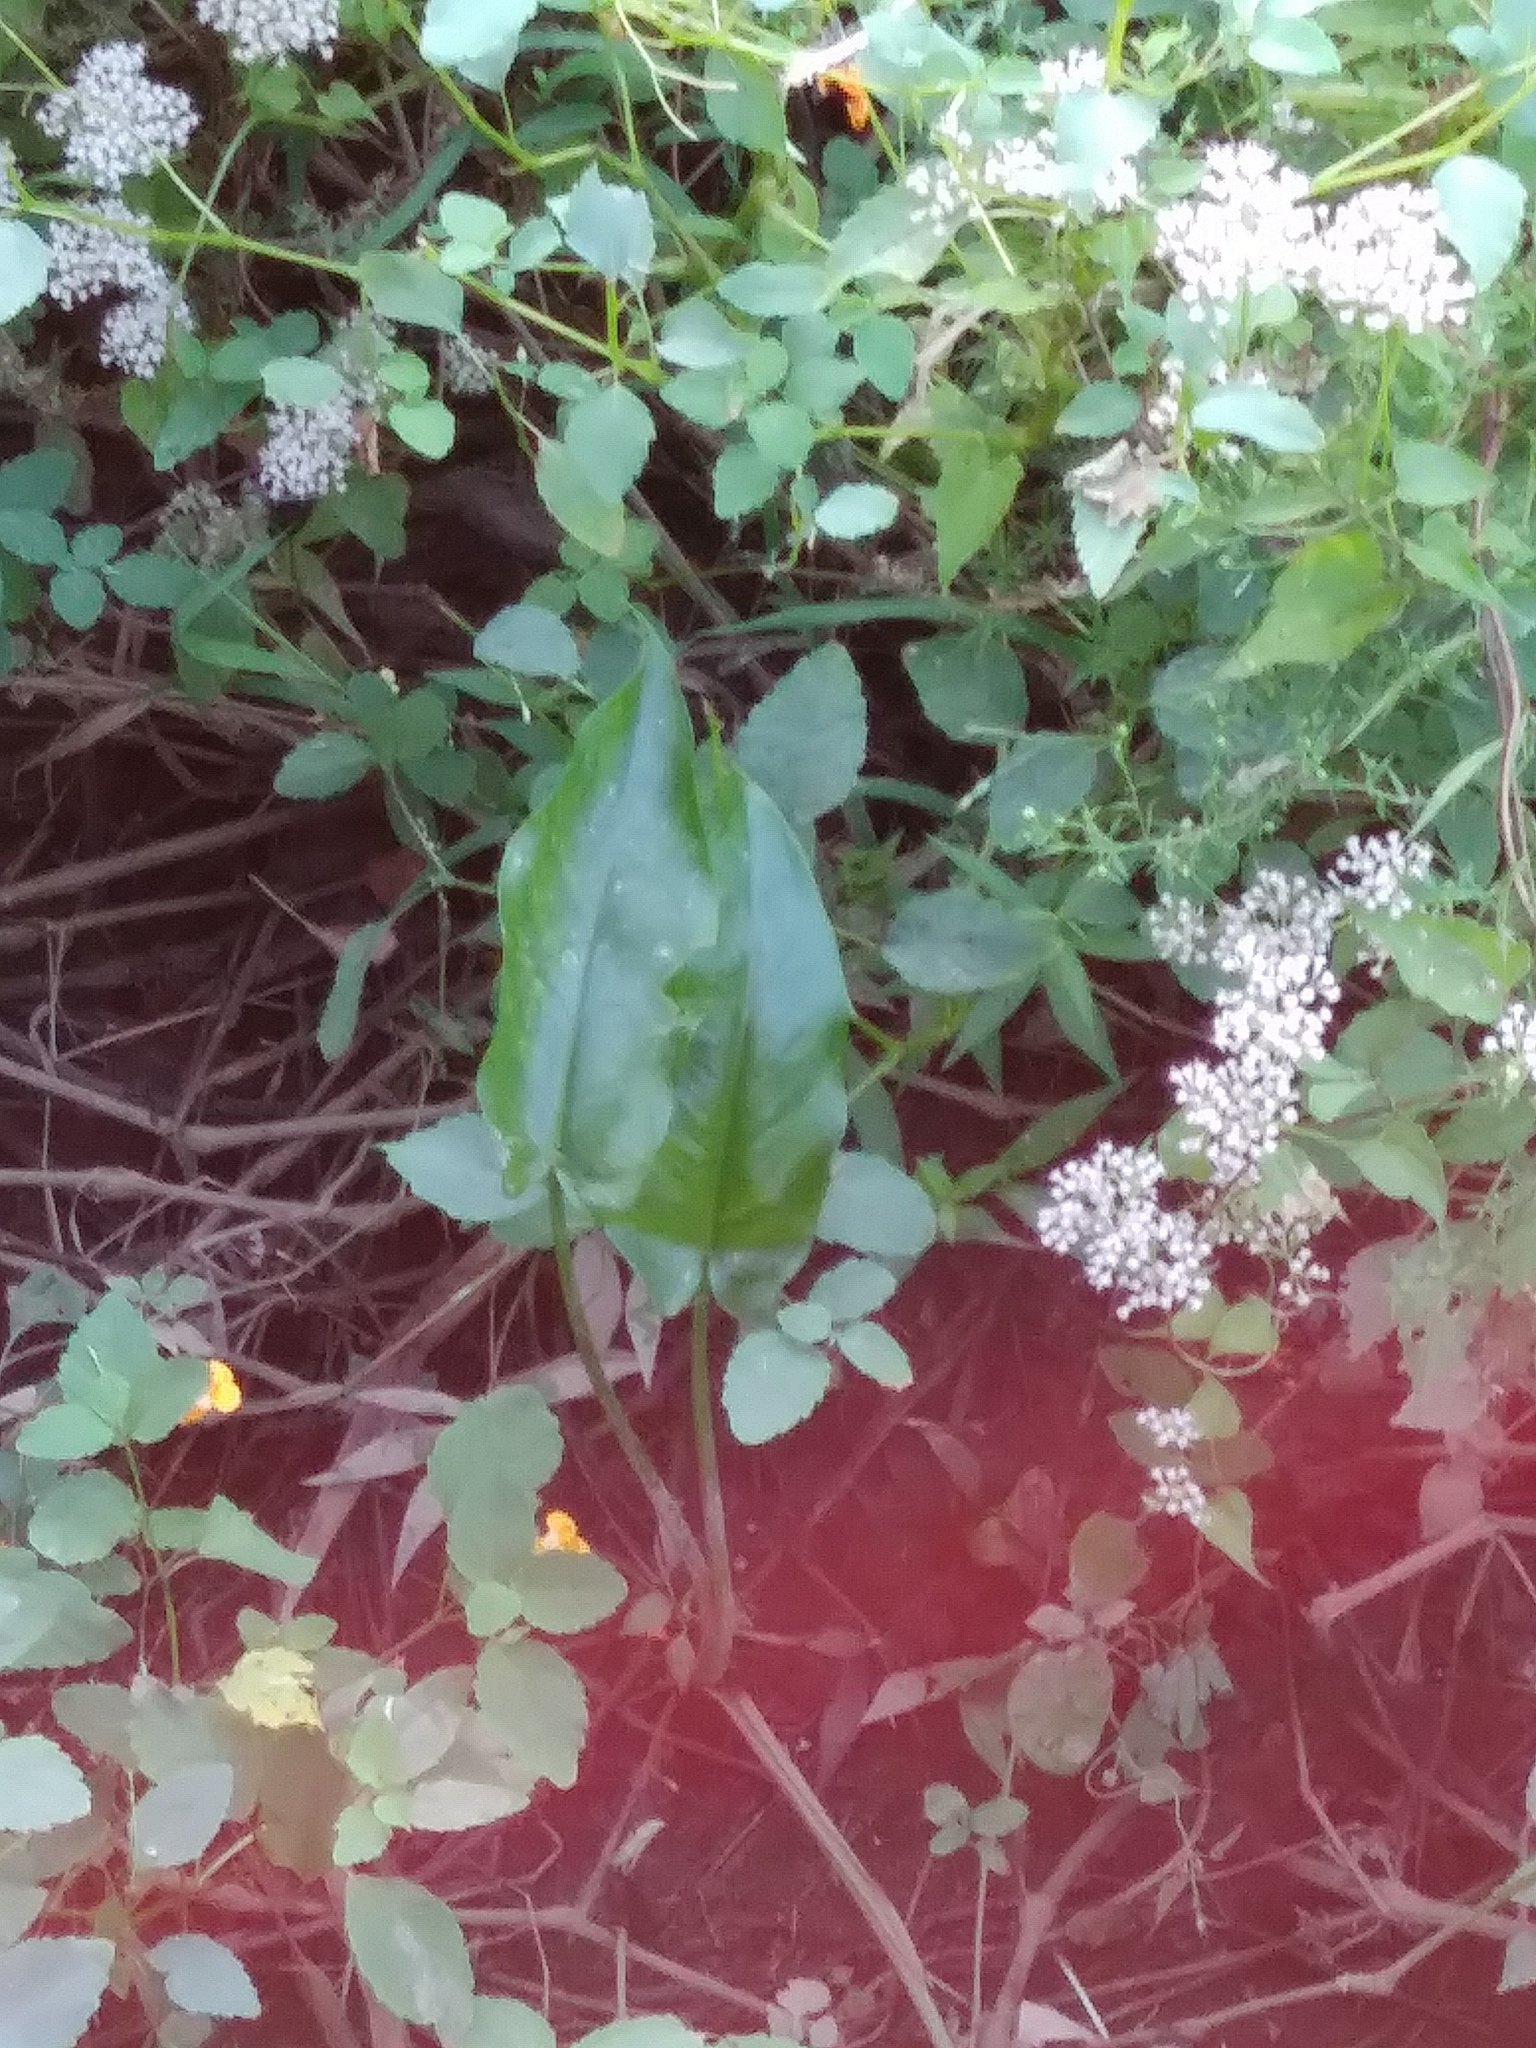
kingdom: Plantae
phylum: Tracheophyta
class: Liliopsida
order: Alismatales
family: Araceae
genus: Peltandra
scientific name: Peltandra virginica
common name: Arrow arum
